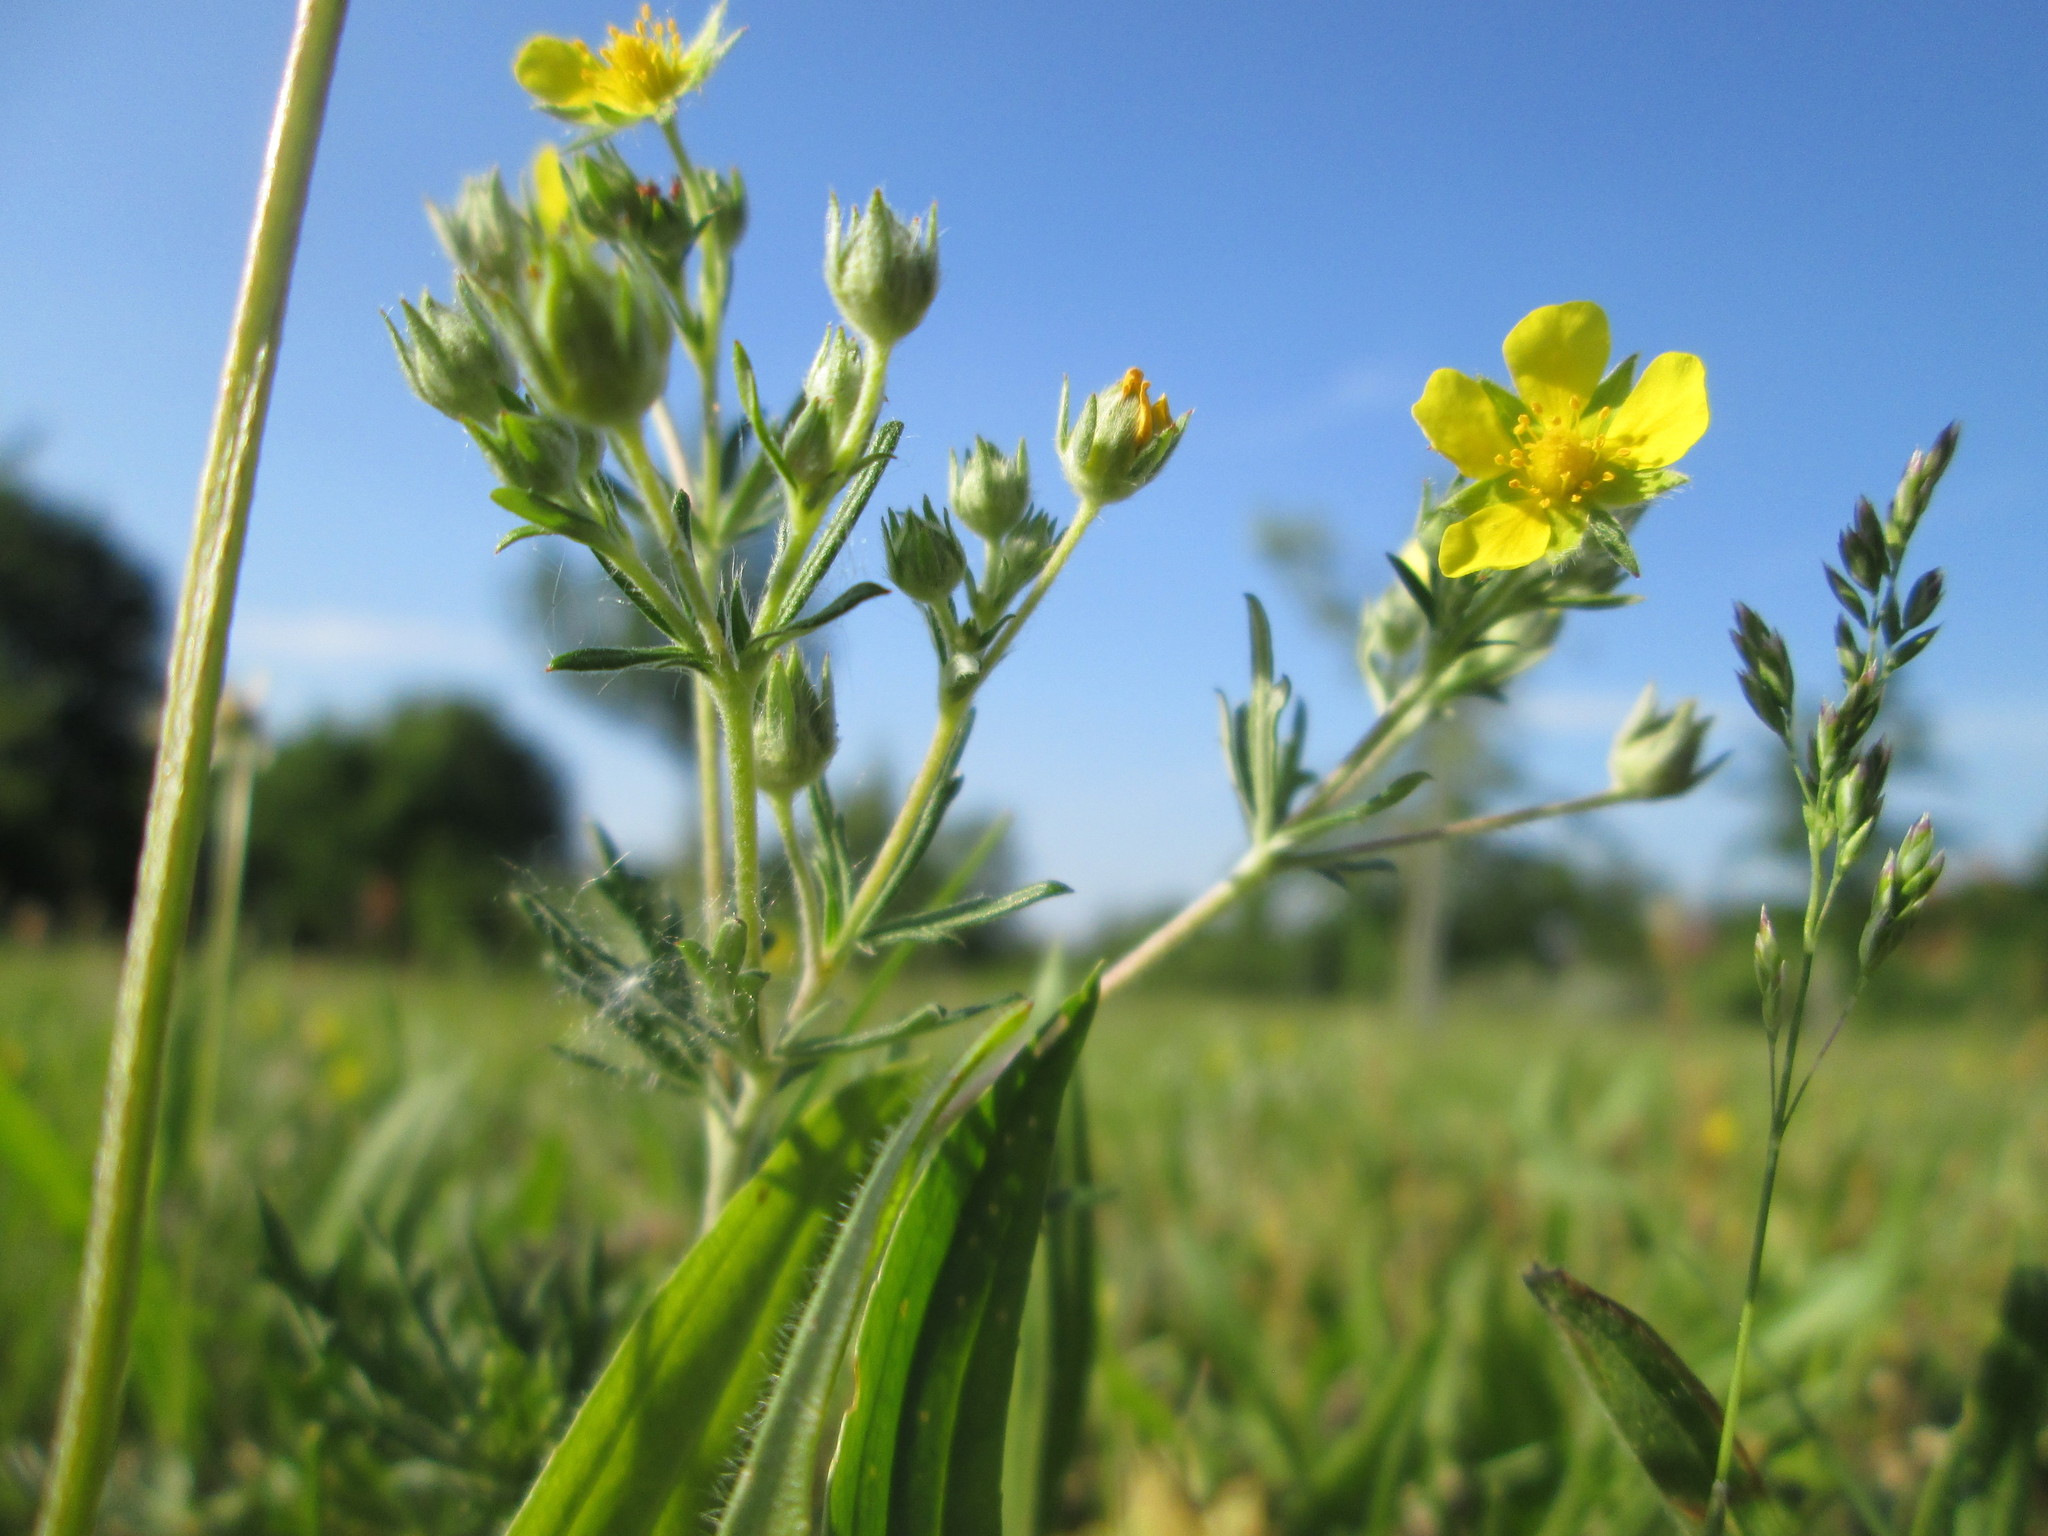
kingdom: Plantae
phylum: Tracheophyta
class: Magnoliopsida
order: Rosales
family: Rosaceae
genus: Potentilla
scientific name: Potentilla argentea
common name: Hoary cinquefoil
